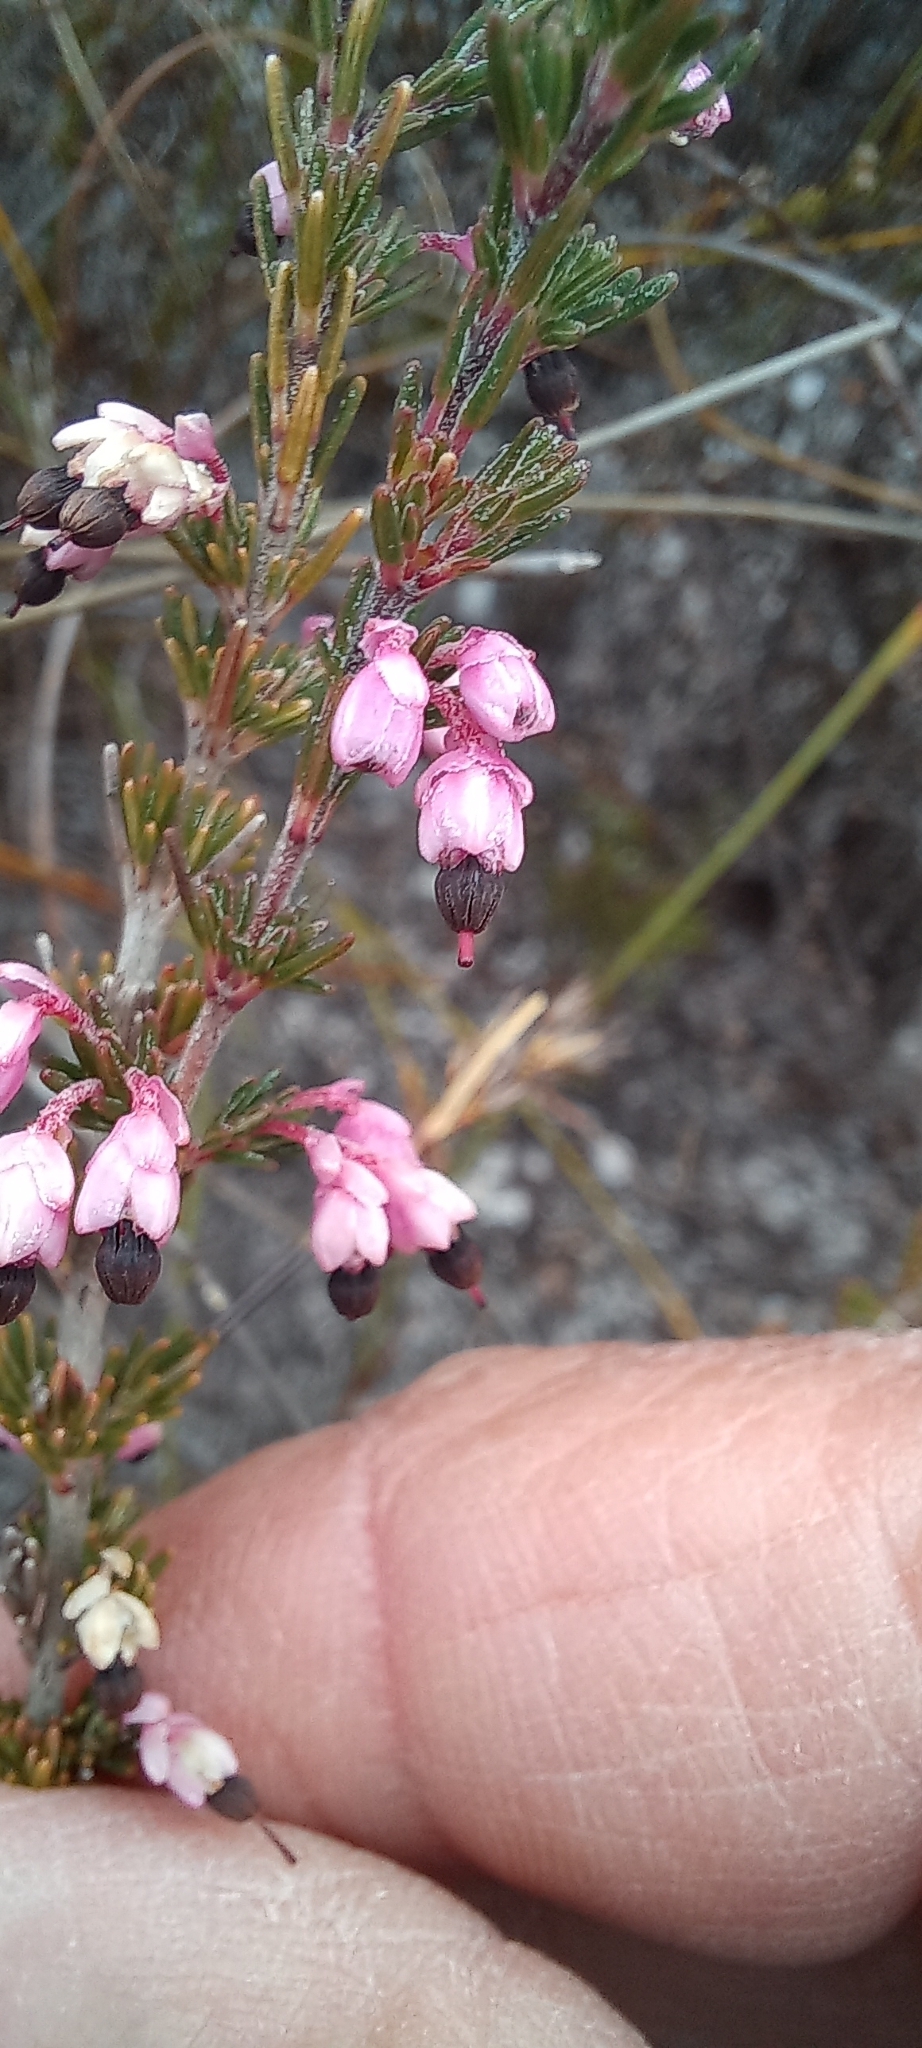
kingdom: Plantae
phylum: Tracheophyta
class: Magnoliopsida
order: Ericales
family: Ericaceae
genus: Erica
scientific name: Erica placentiflora
